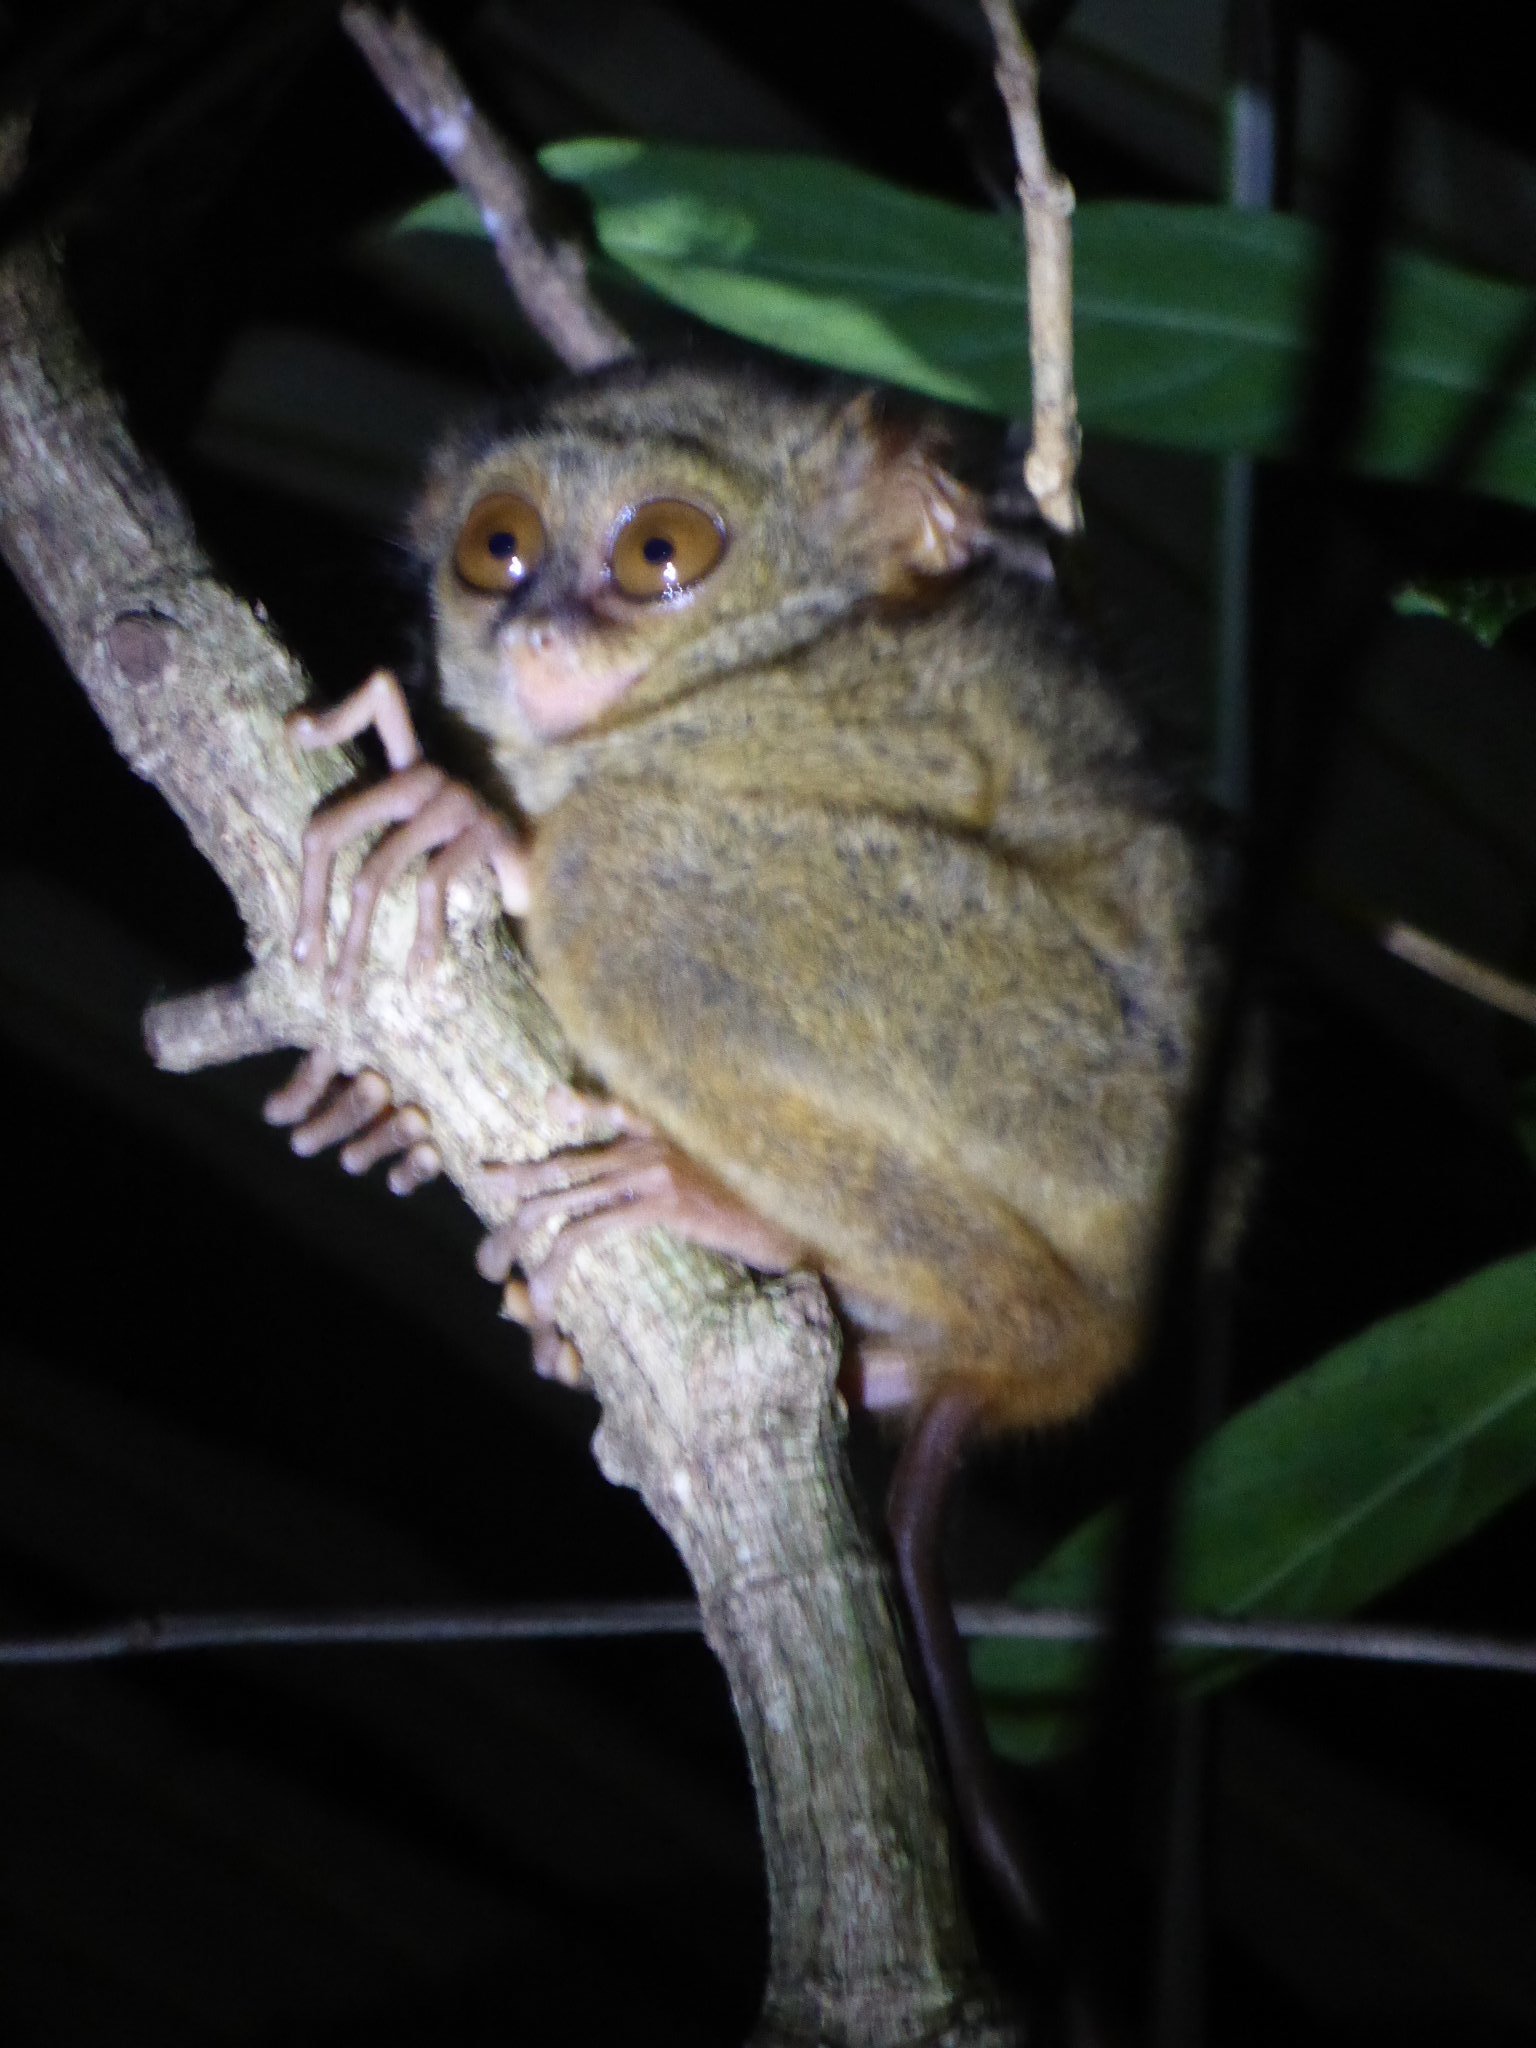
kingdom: Animalia
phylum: Chordata
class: Mammalia
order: Primates
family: Tarsiidae
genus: Tarsius
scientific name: Tarsius spectrumgurskyae
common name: Gursky's spectral tarsier
